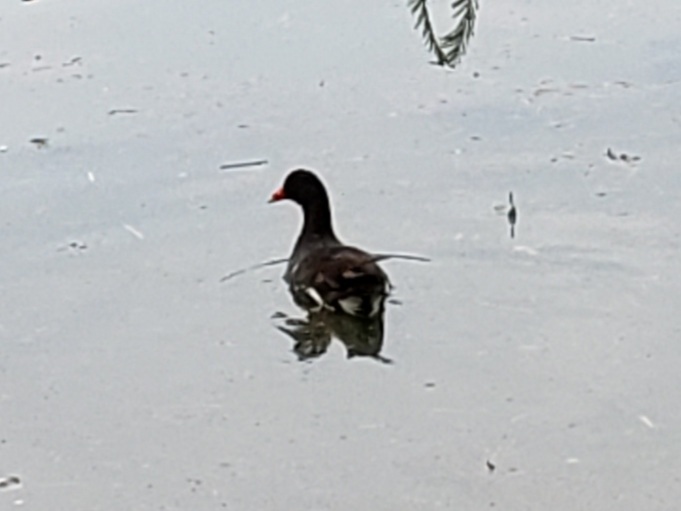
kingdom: Animalia
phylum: Chordata
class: Aves
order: Gruiformes
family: Rallidae
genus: Gallinula
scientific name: Gallinula chloropus
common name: Common moorhen
